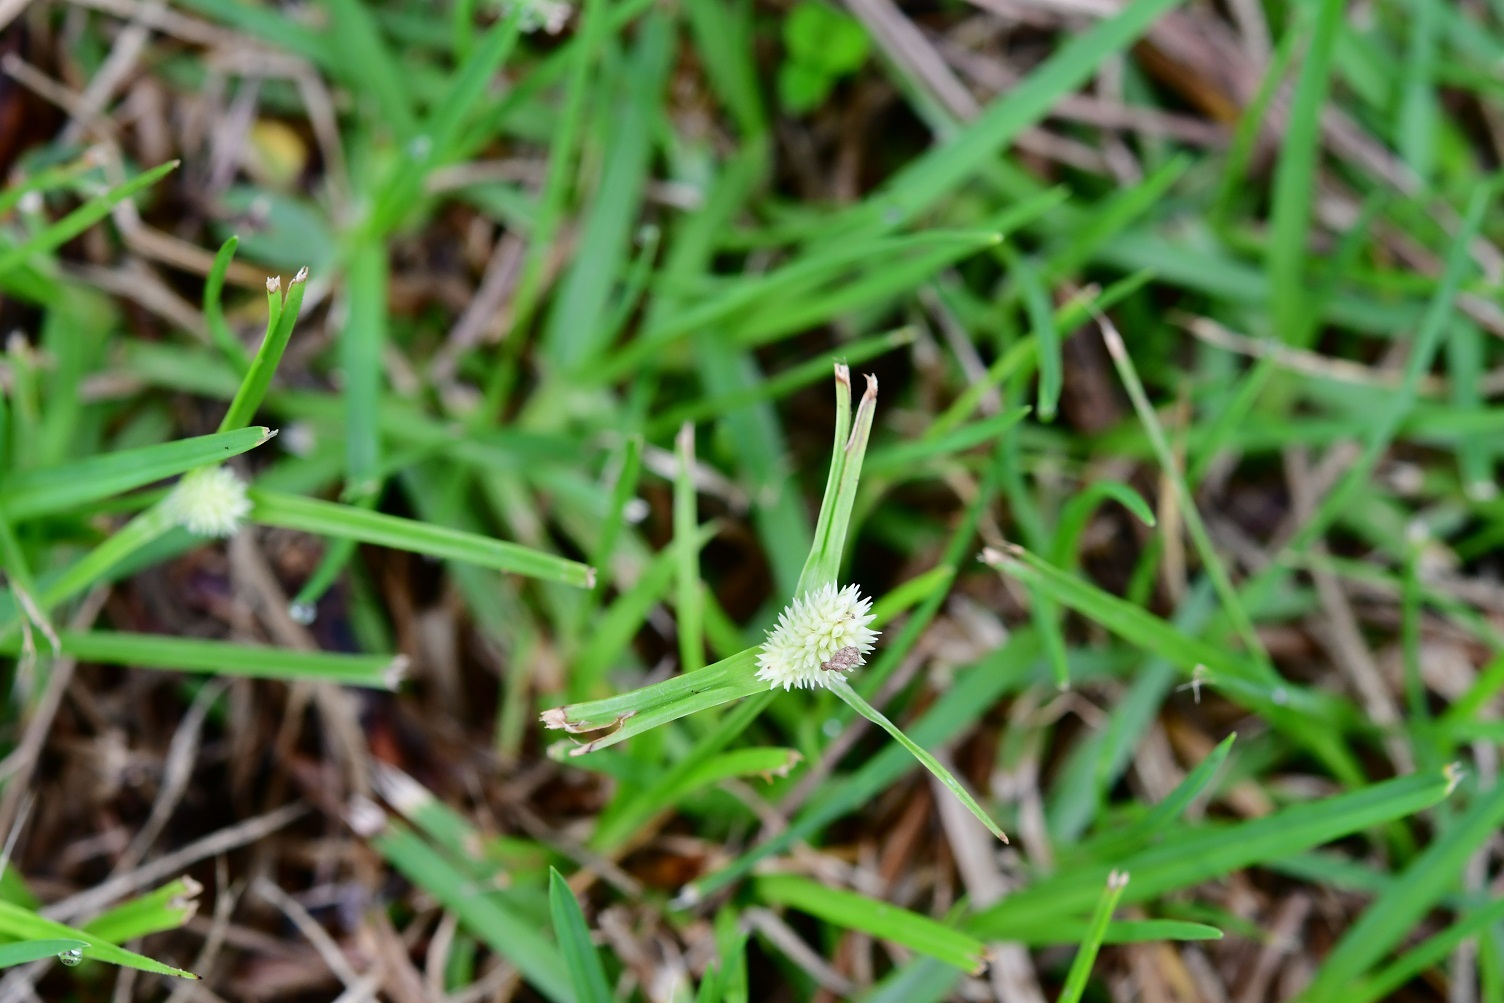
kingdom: Plantae
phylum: Tracheophyta
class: Liliopsida
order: Poales
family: Cyperaceae
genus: Cyperus
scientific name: Cyperus sesquiflorus
